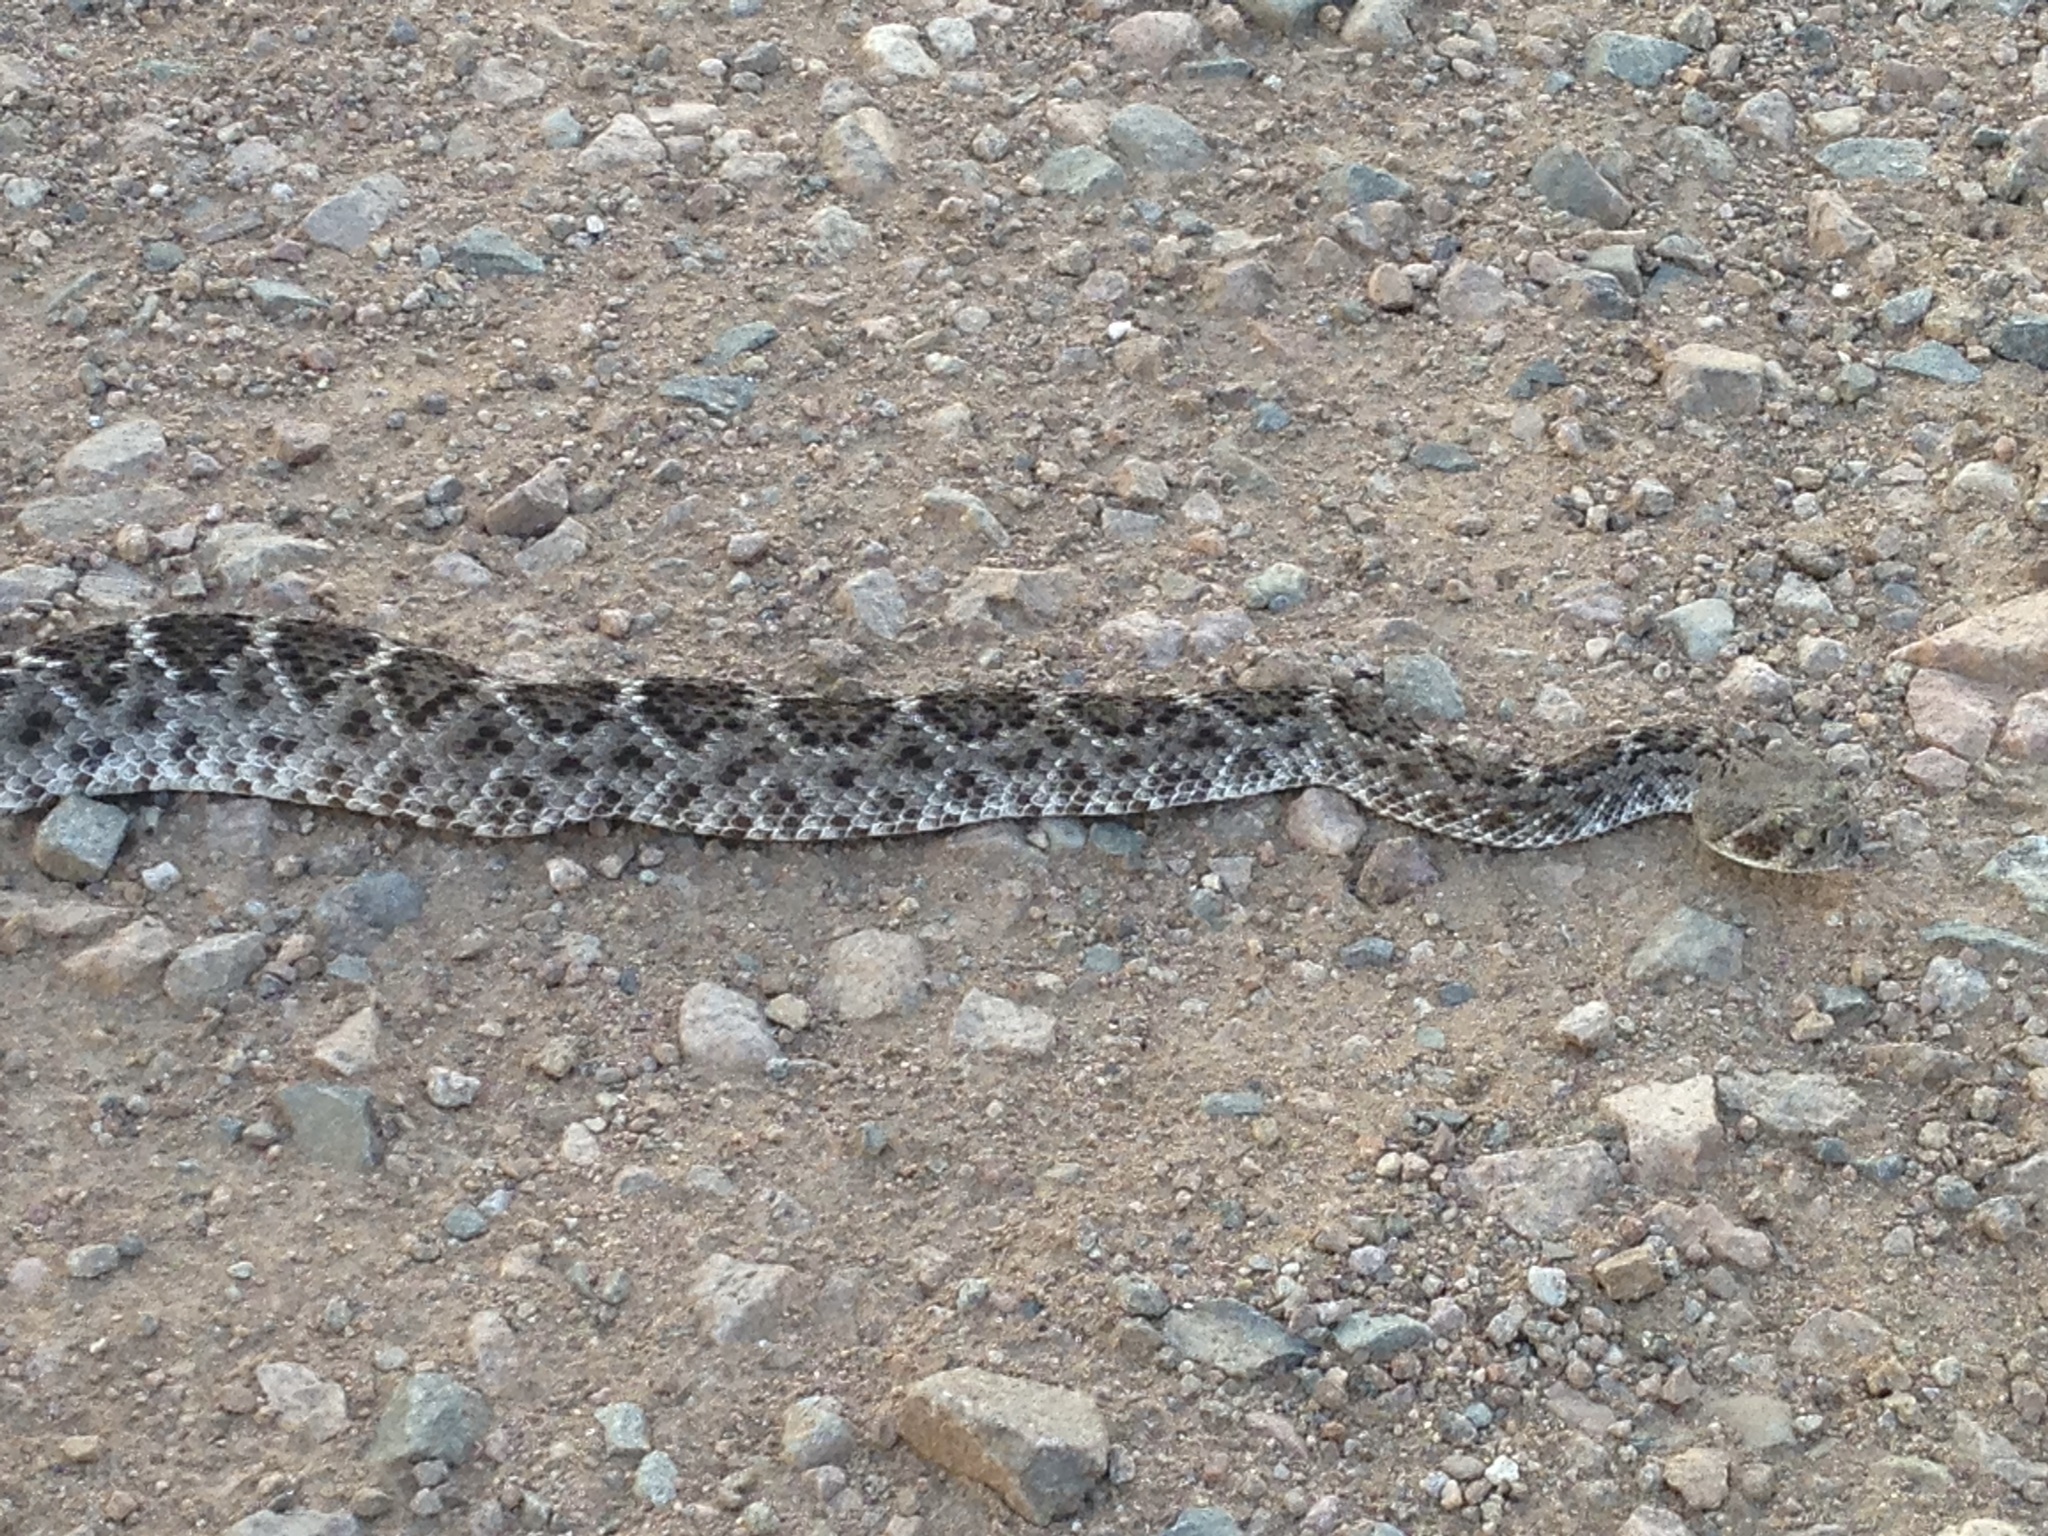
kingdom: Animalia
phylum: Chordata
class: Squamata
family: Viperidae
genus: Crotalus
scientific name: Crotalus atrox
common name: Western diamond-backed rattlesnake
